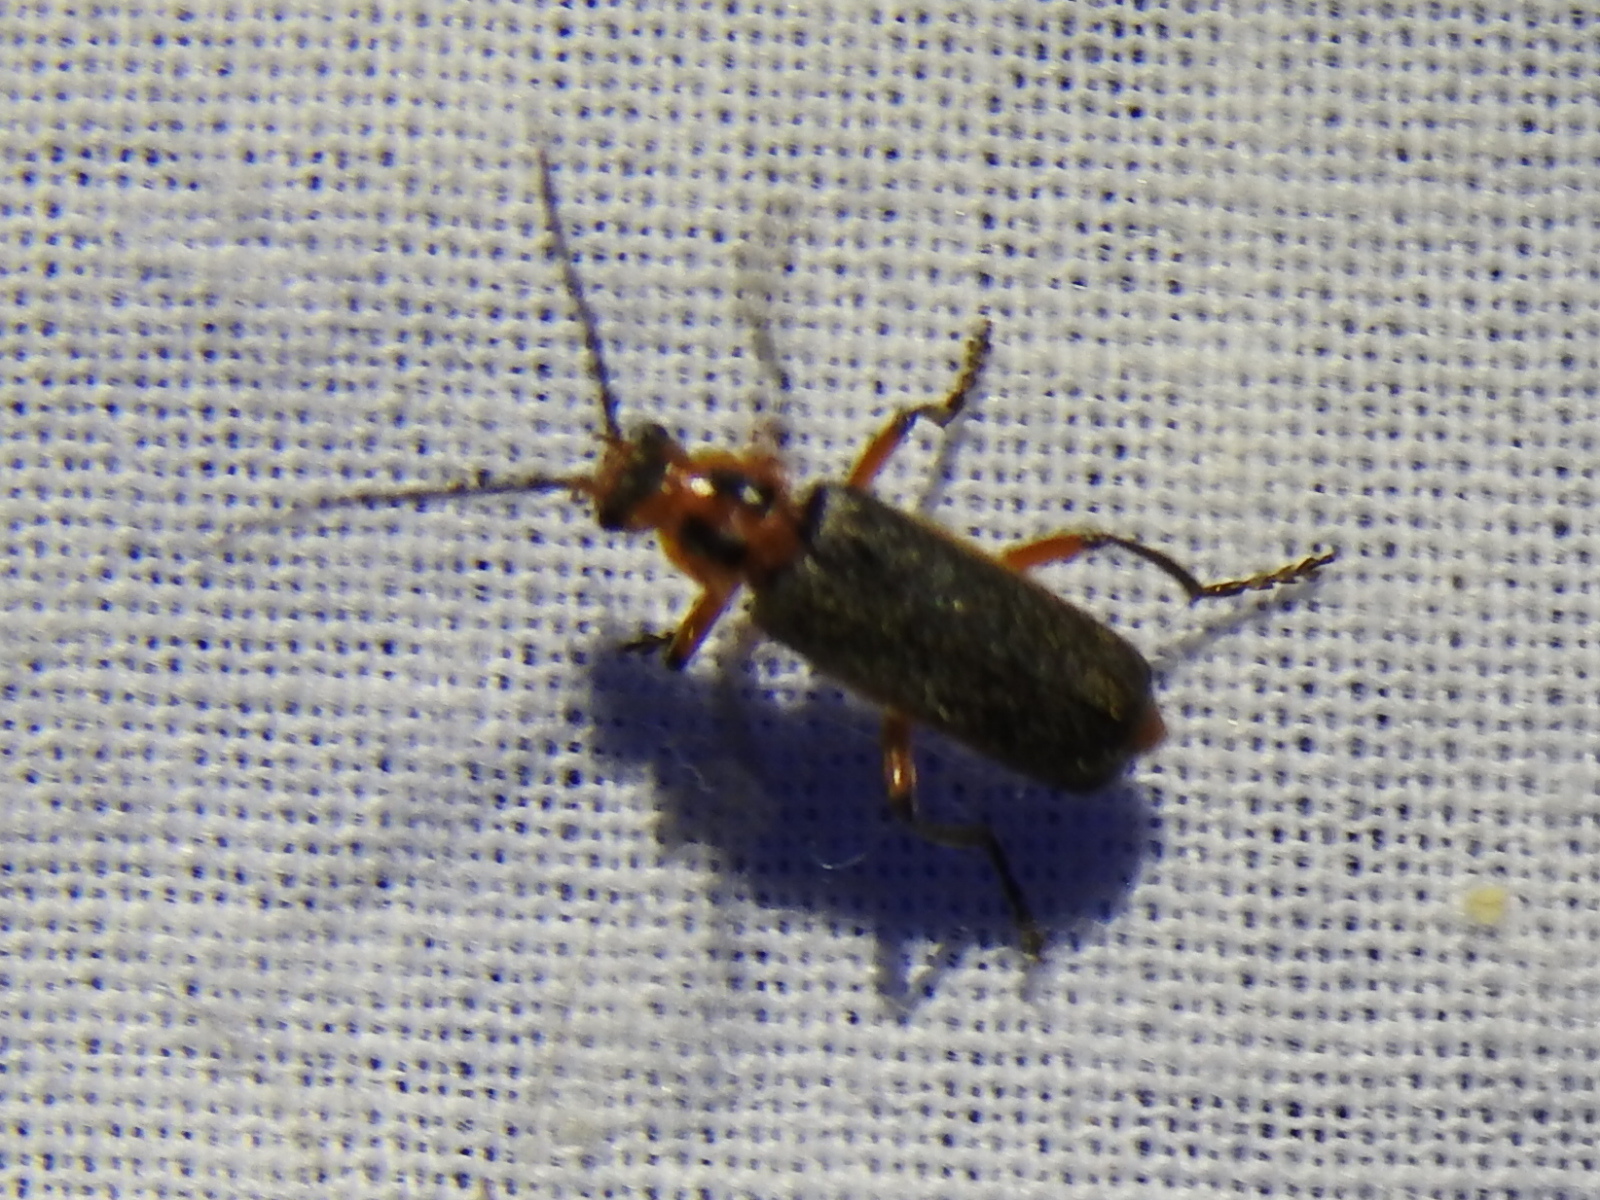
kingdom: Animalia
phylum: Arthropoda
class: Insecta
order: Coleoptera
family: Cantharidae
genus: Atalantycha
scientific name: Atalantycha bilineata
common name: Two-lined leatherwing
